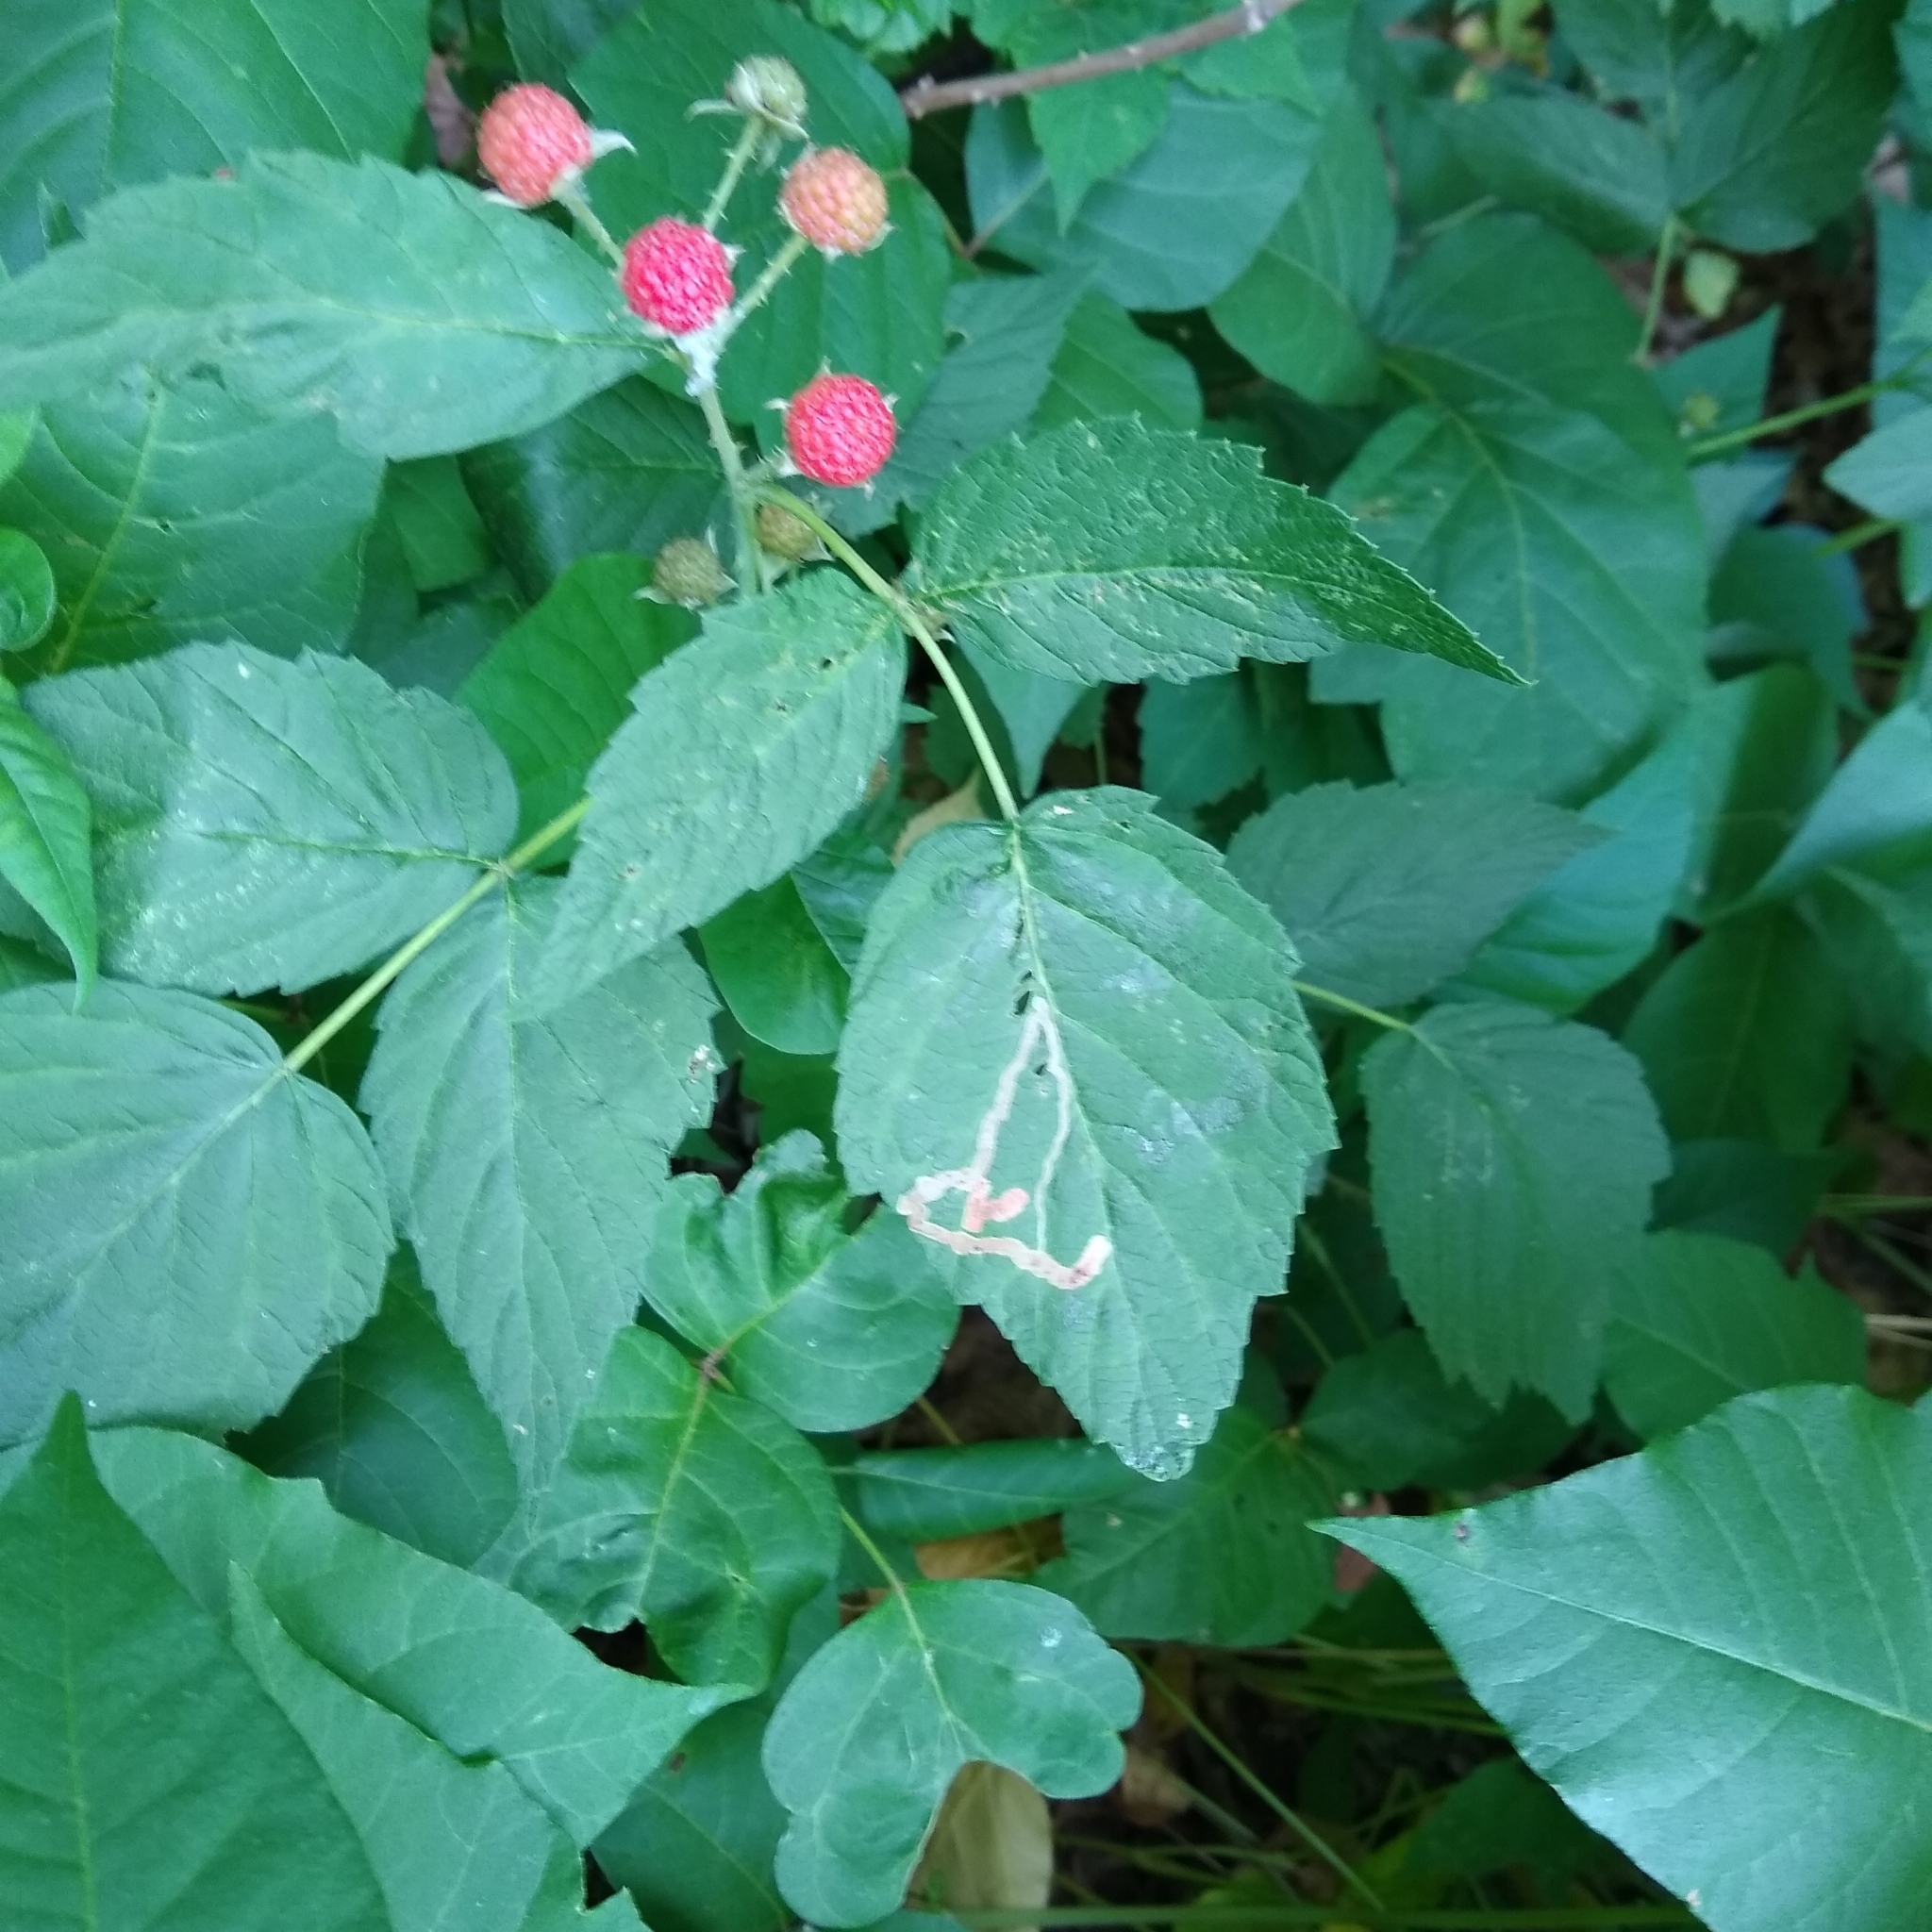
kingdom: Animalia
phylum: Arthropoda
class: Insecta
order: Diptera
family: Agromyzidae
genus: Agromyza
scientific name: Agromyza vockerothi
